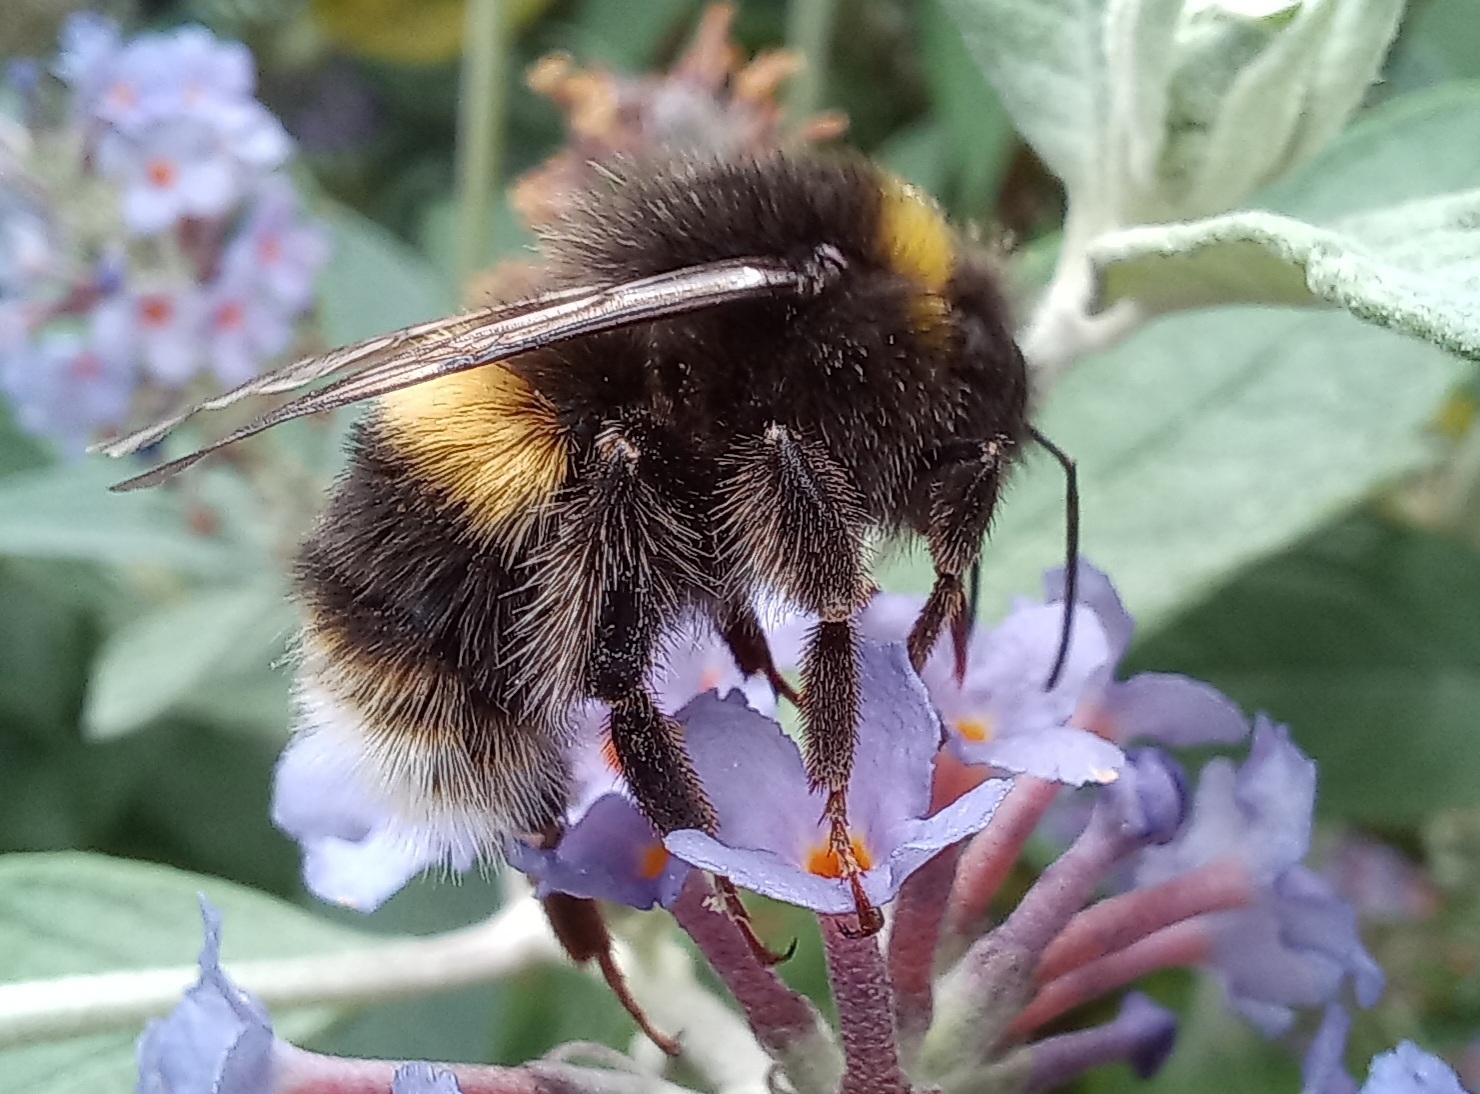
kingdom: Animalia
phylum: Arthropoda
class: Insecta
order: Hymenoptera
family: Apidae
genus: Bombus
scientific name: Bombus terrestris
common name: Buff-tailed bumblebee
